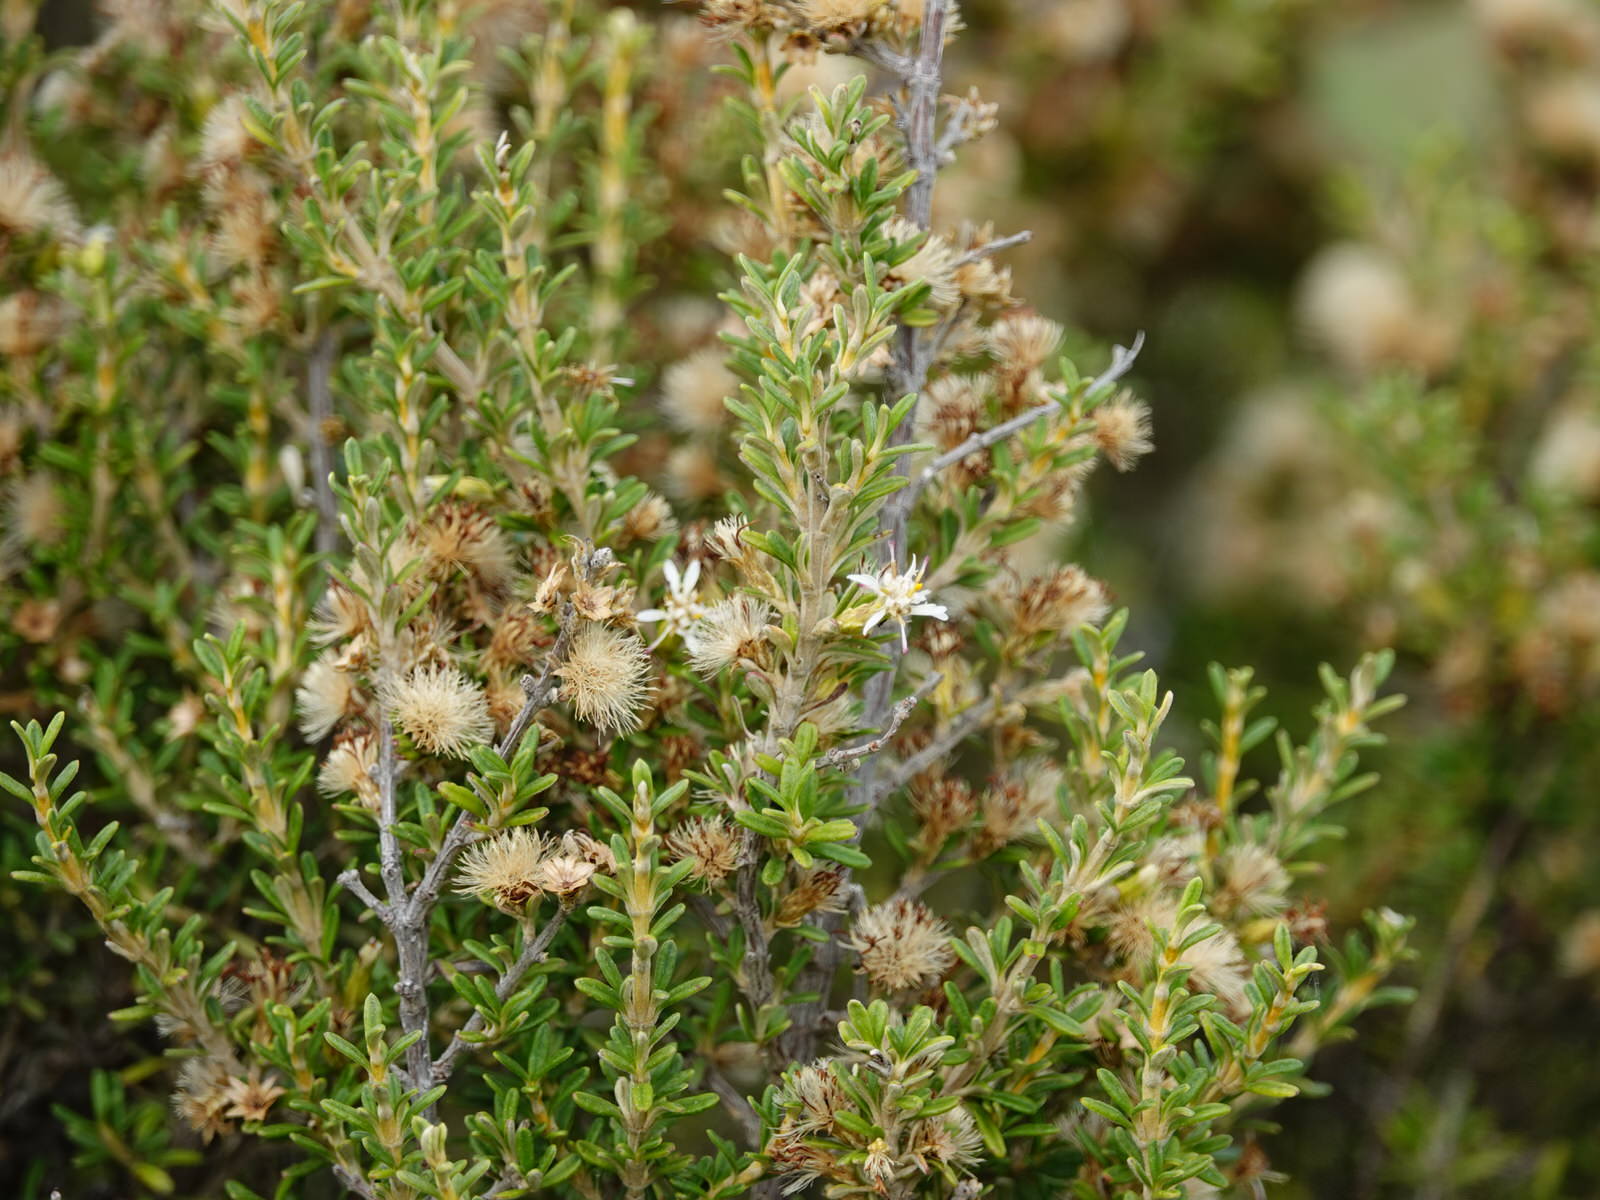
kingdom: Plantae
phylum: Tracheophyta
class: Magnoliopsida
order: Asterales
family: Asteraceae
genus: Olearia
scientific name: Olearia solandri
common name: Coastal daisybush
